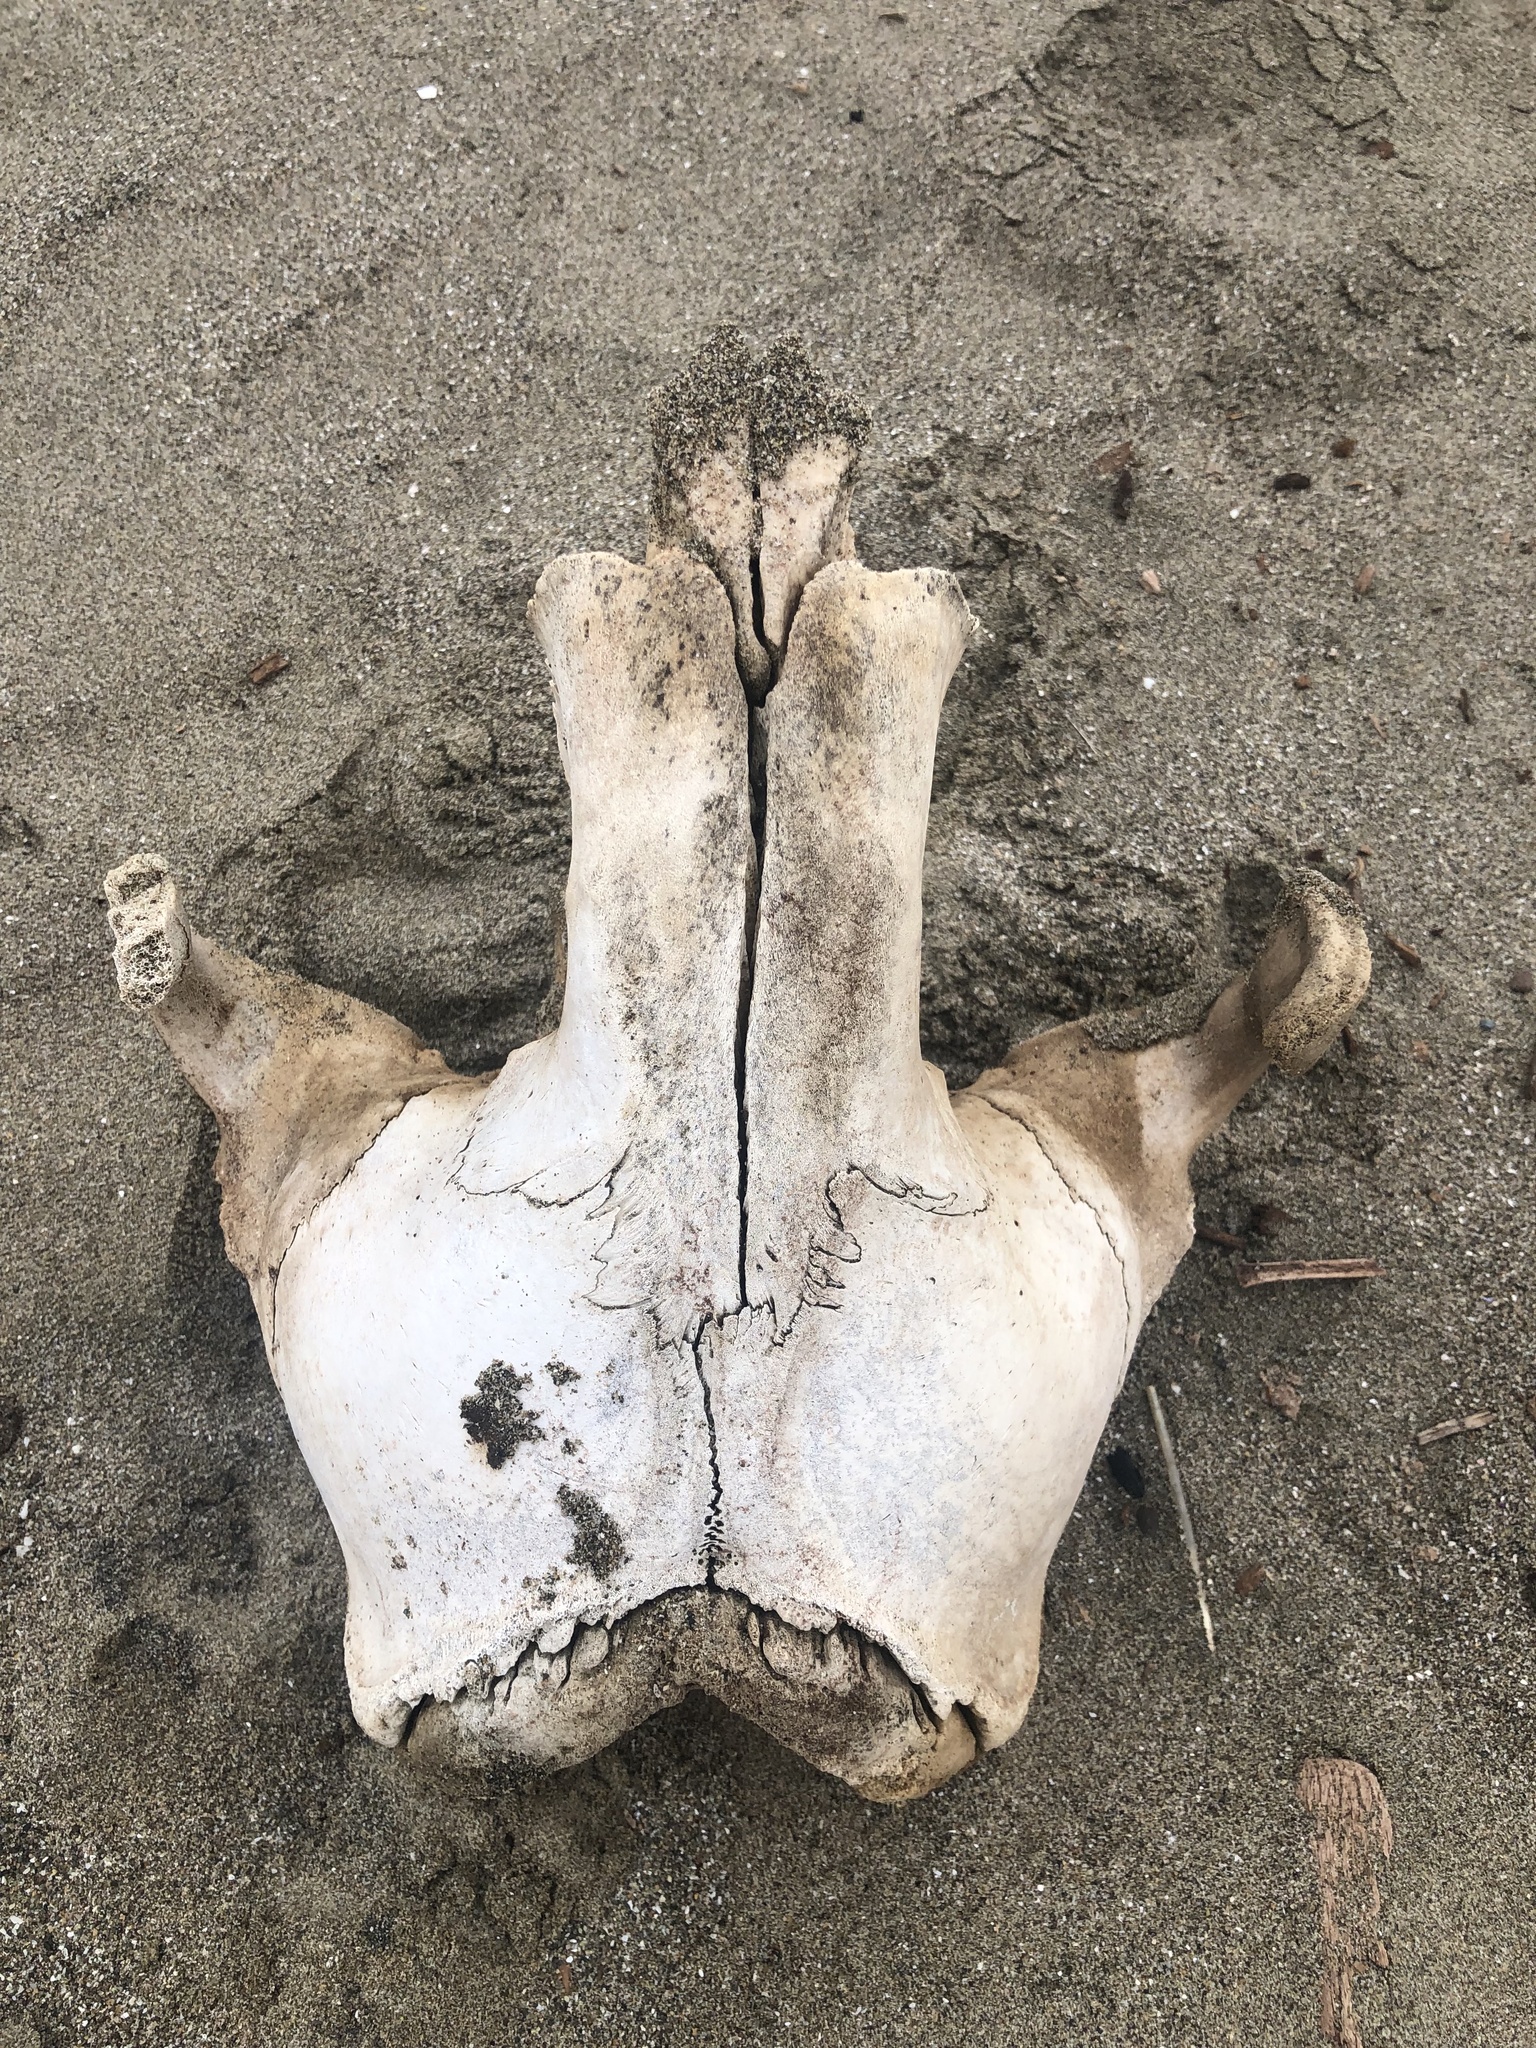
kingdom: Animalia
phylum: Chordata
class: Mammalia
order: Carnivora
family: Otariidae
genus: Otaria
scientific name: Otaria byronia
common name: South american sea lion
